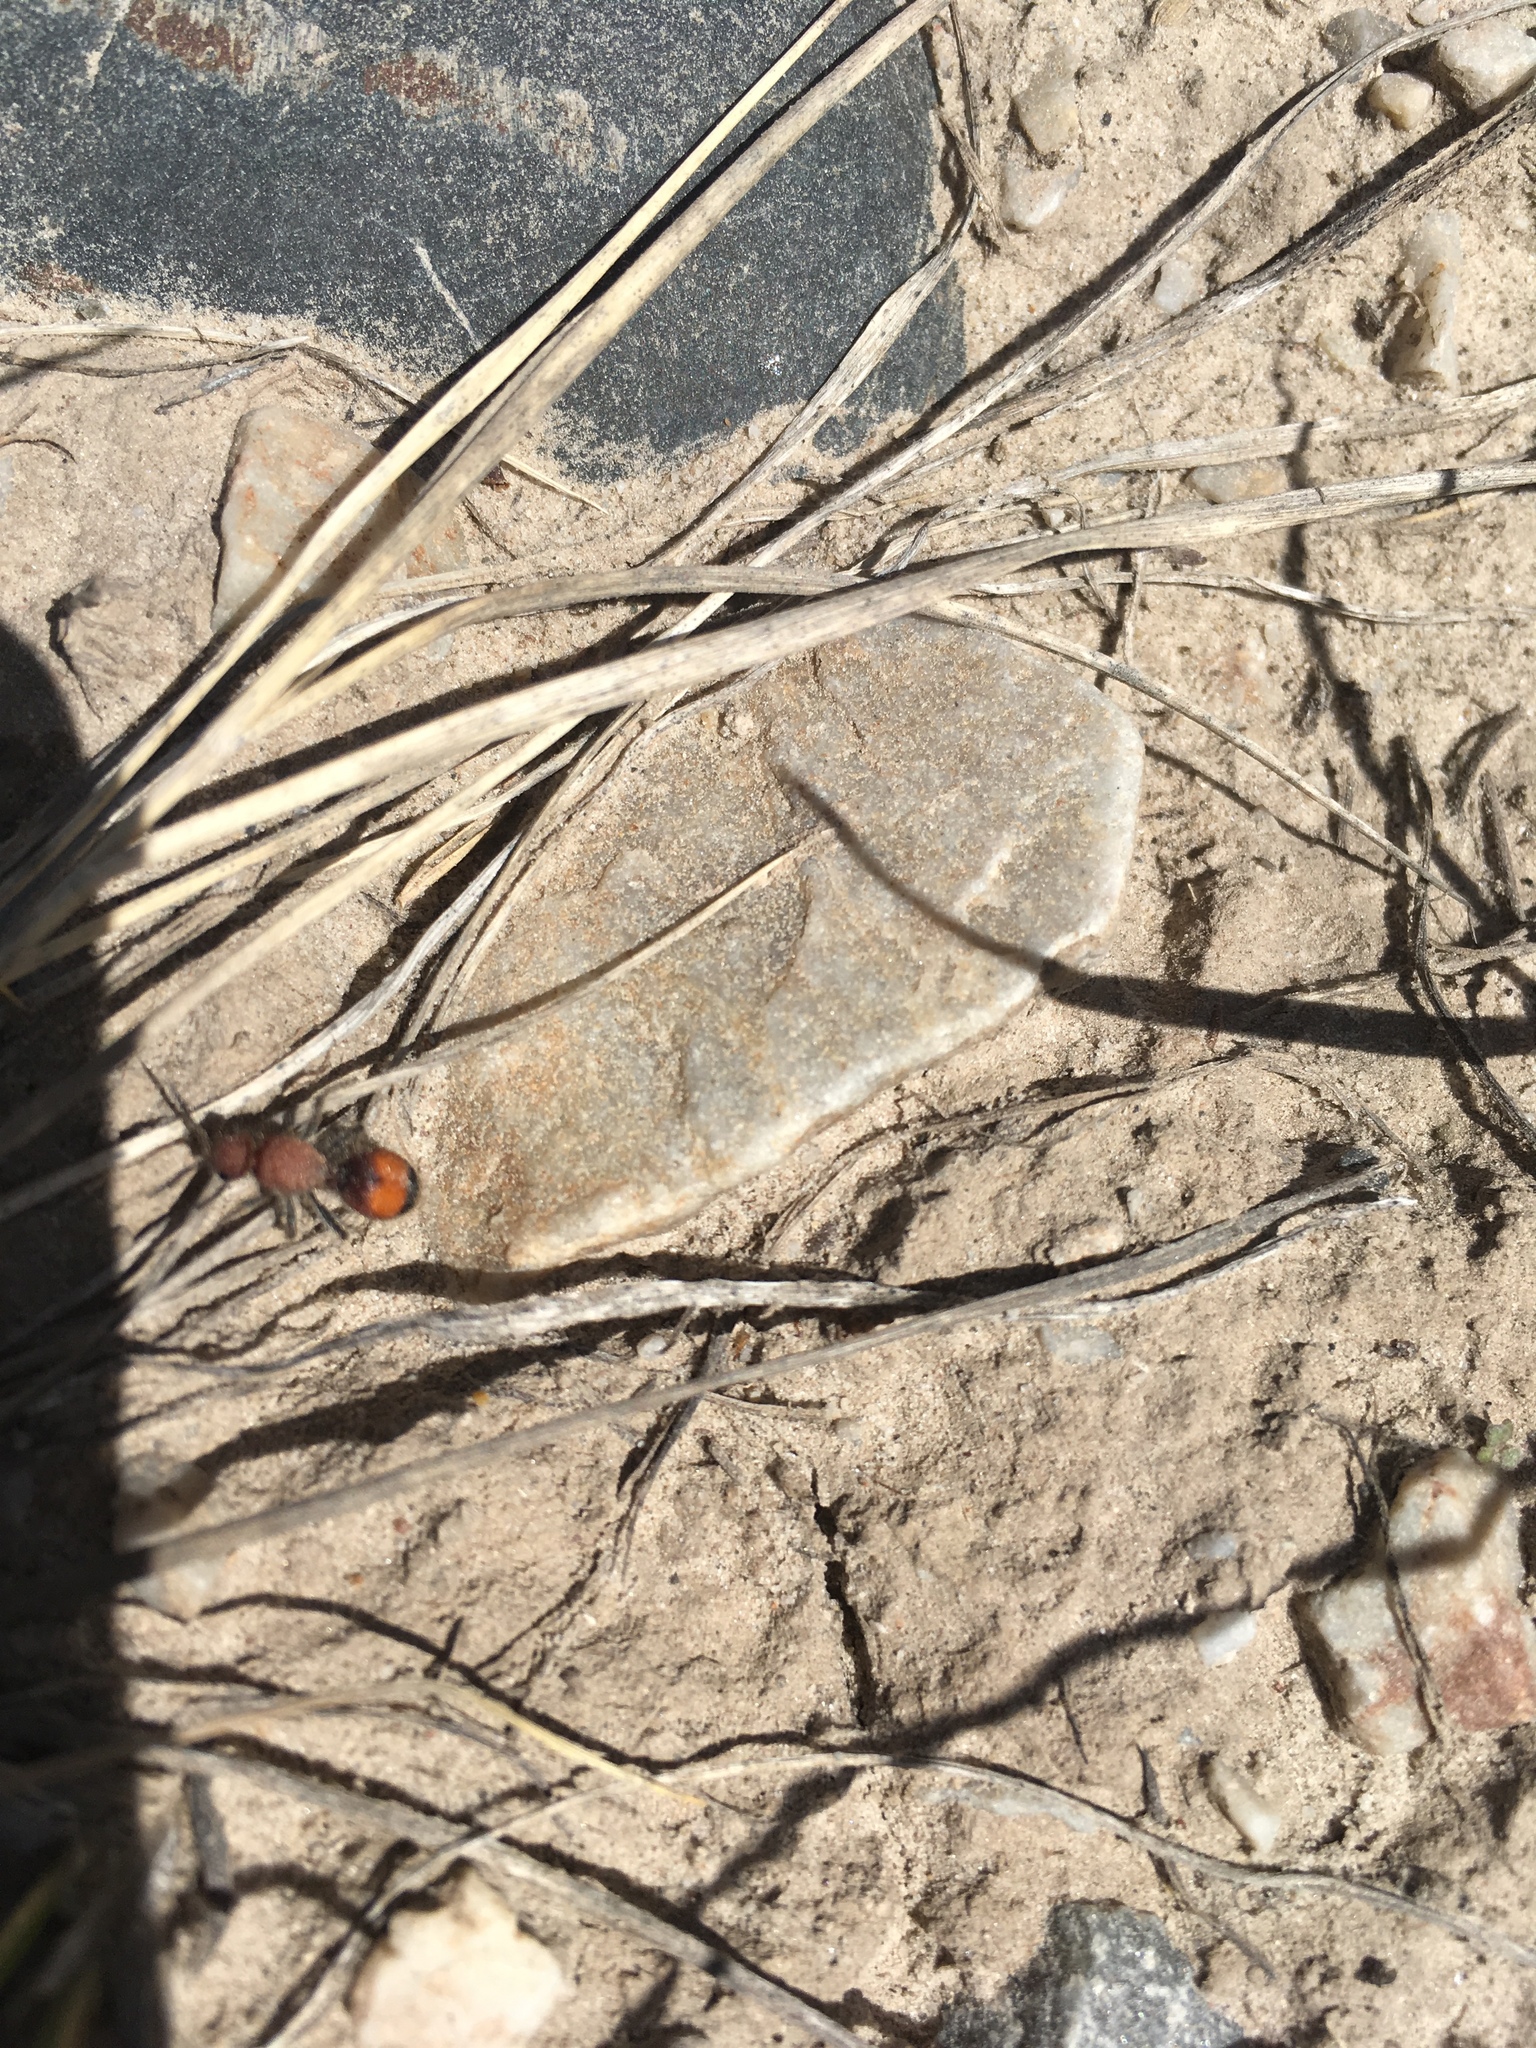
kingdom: Animalia
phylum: Arthropoda
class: Insecta
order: Hymenoptera
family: Mutillidae
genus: Dasymutilla
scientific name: Dasymutilla
